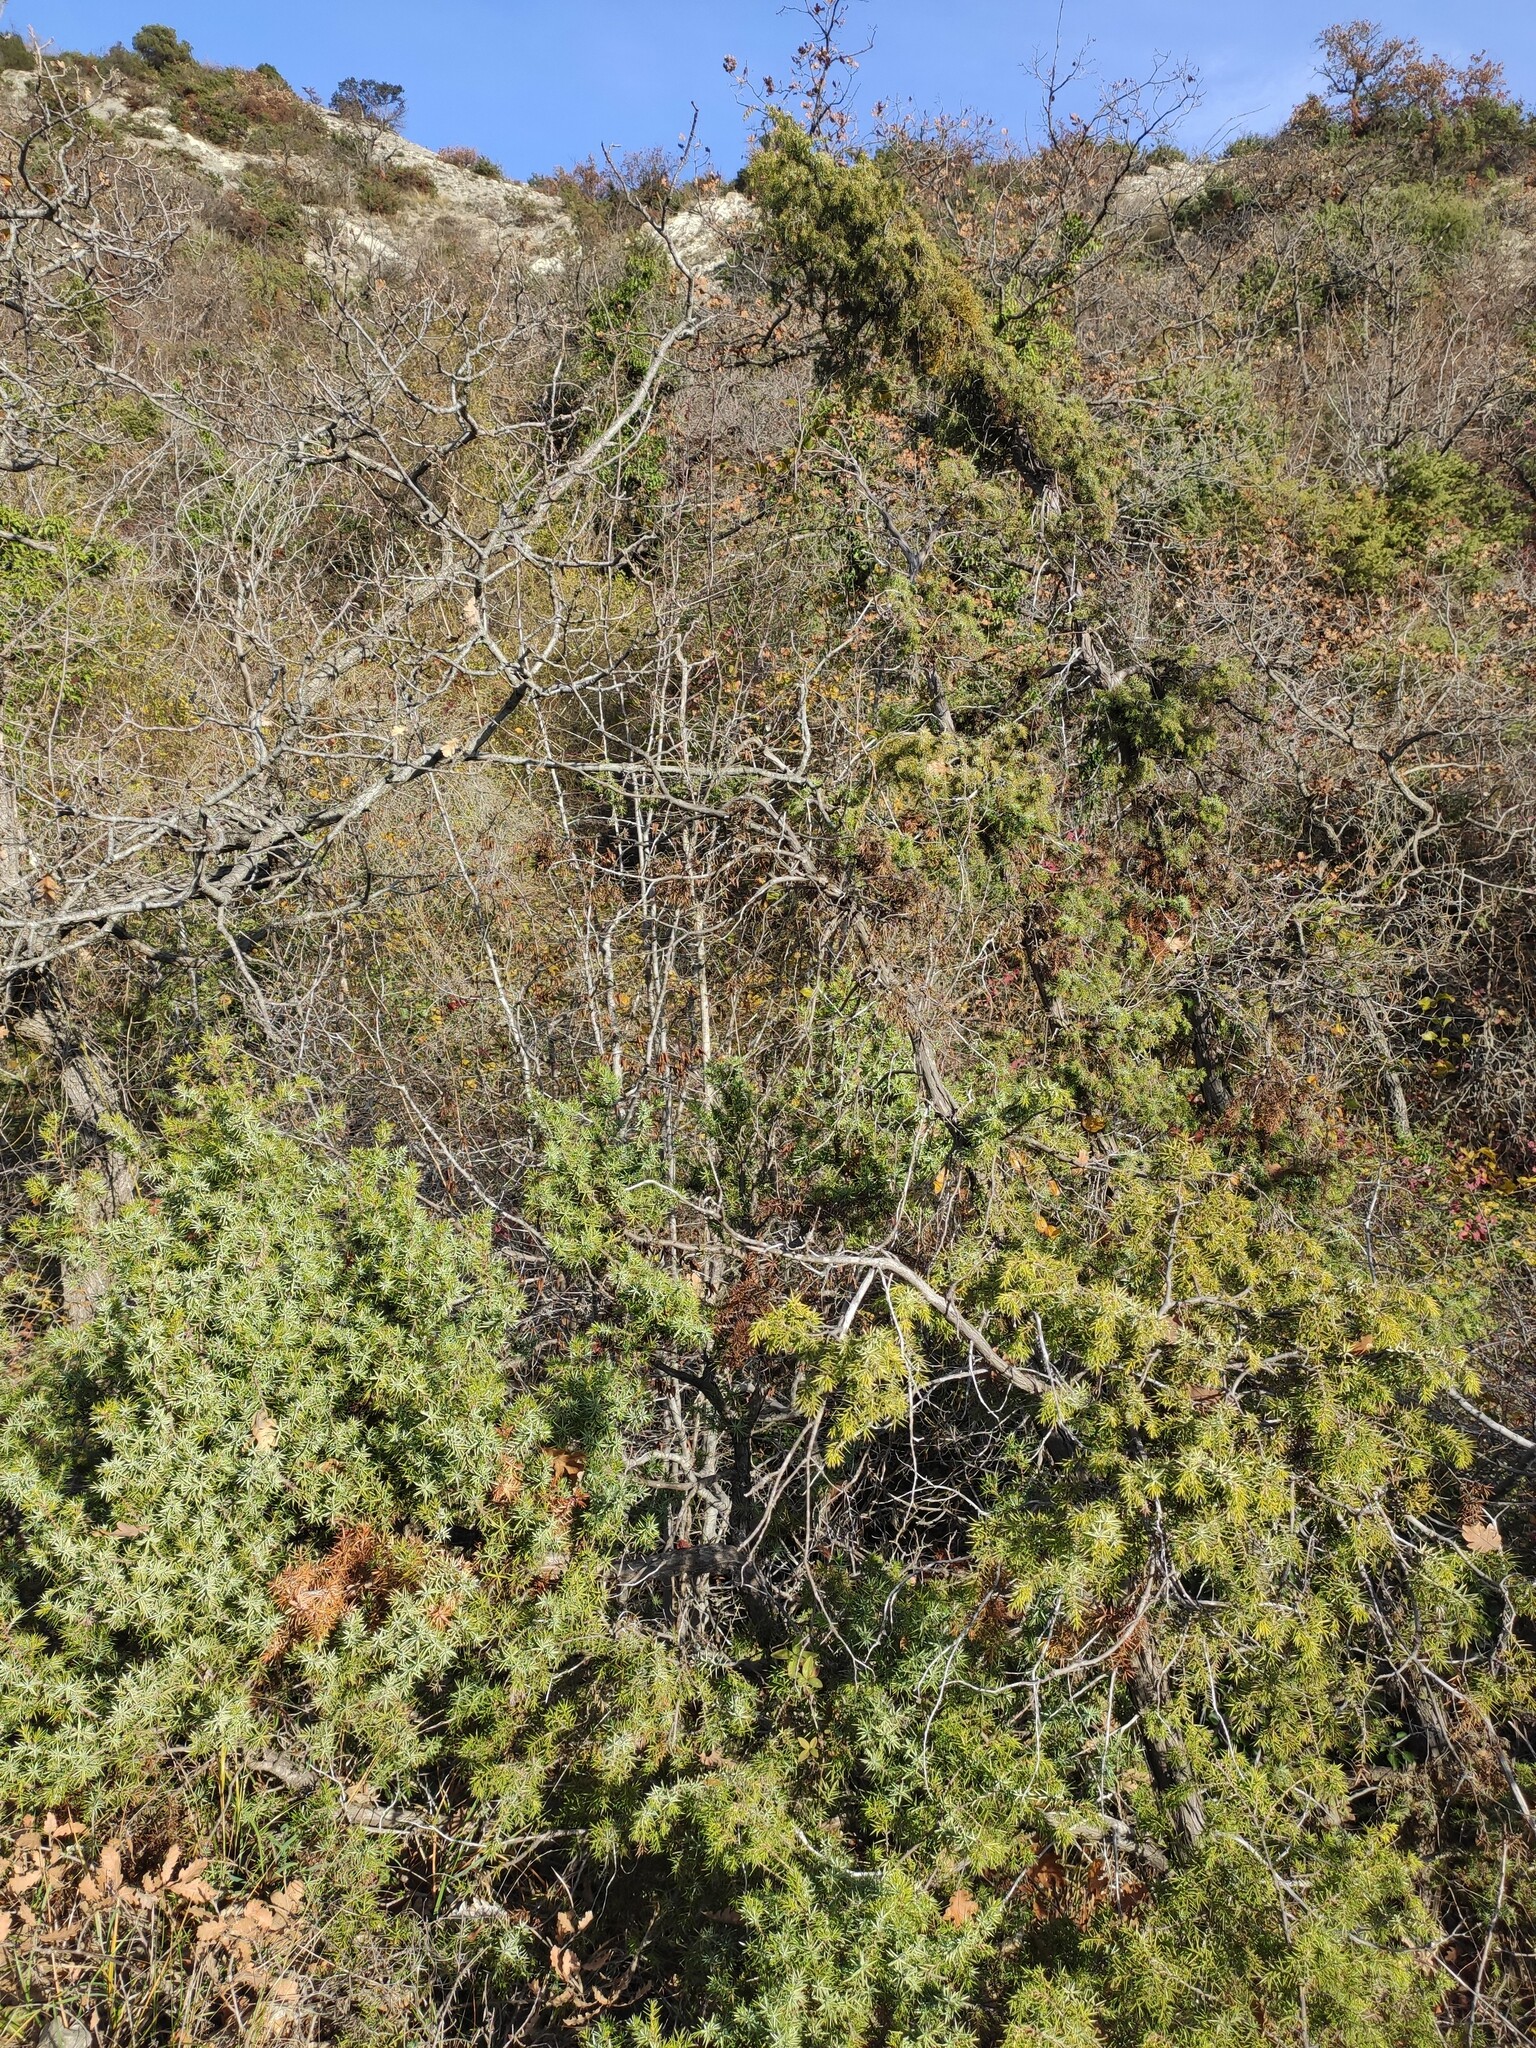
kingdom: Plantae
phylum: Tracheophyta
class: Pinopsida
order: Pinales
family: Cupressaceae
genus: Juniperus
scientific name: Juniperus oxycedrus
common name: Prickly juniper
